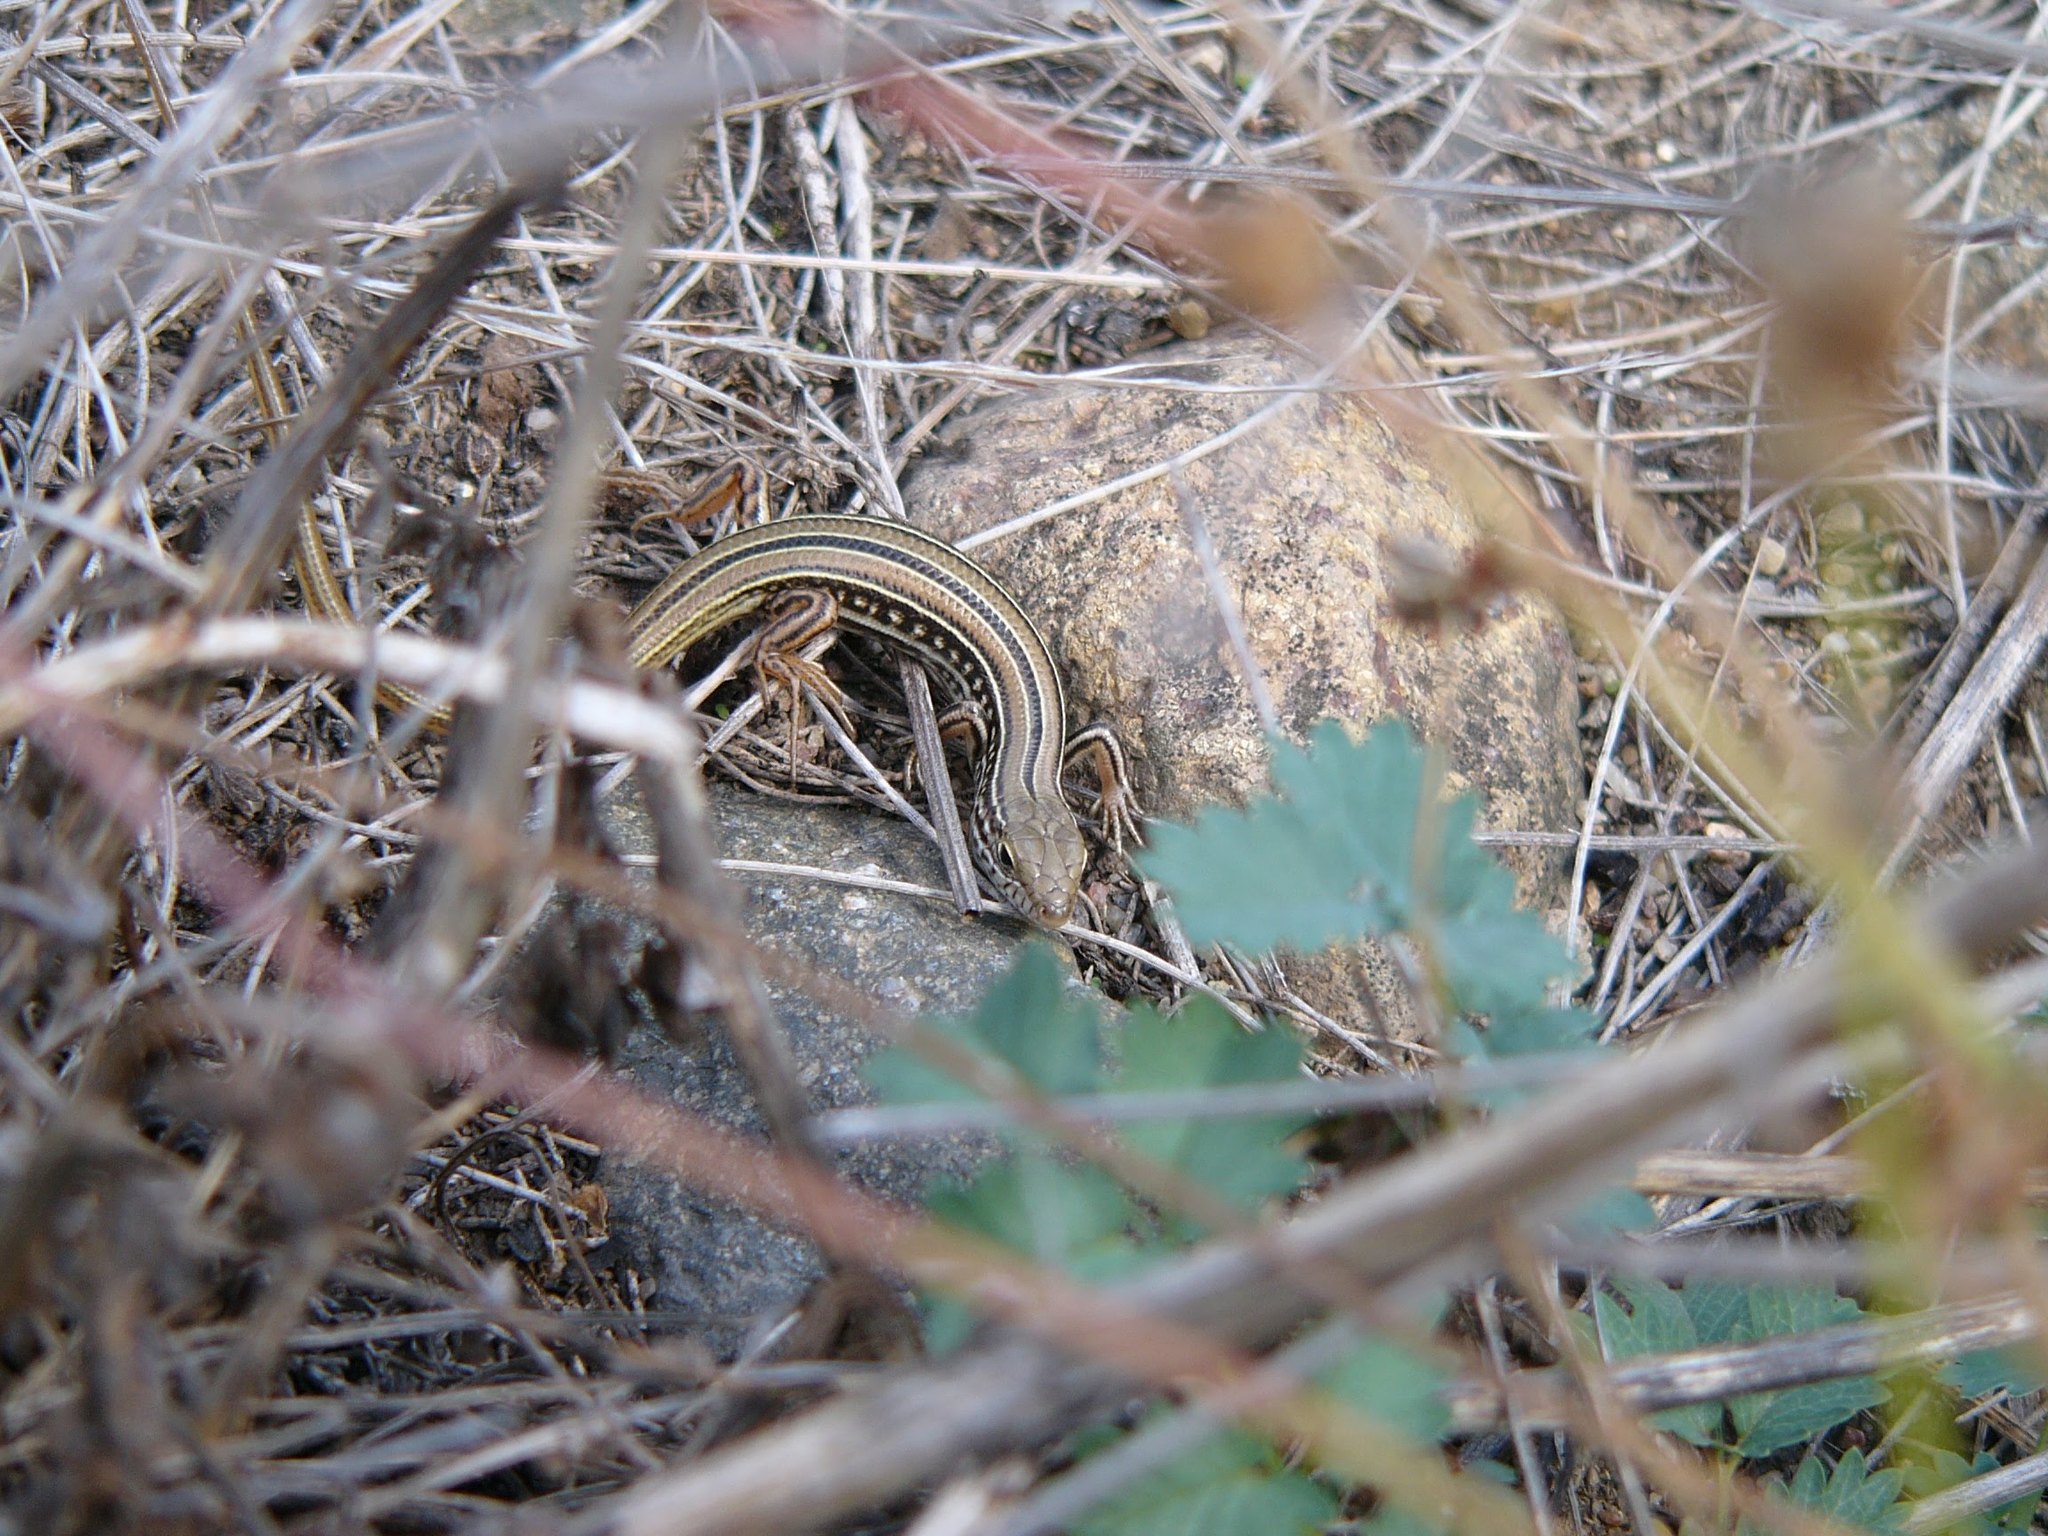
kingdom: Animalia
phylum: Chordata
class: Squamata
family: Scincidae
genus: Ctenotus
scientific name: Ctenotus robustus
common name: Robust ctenotus
